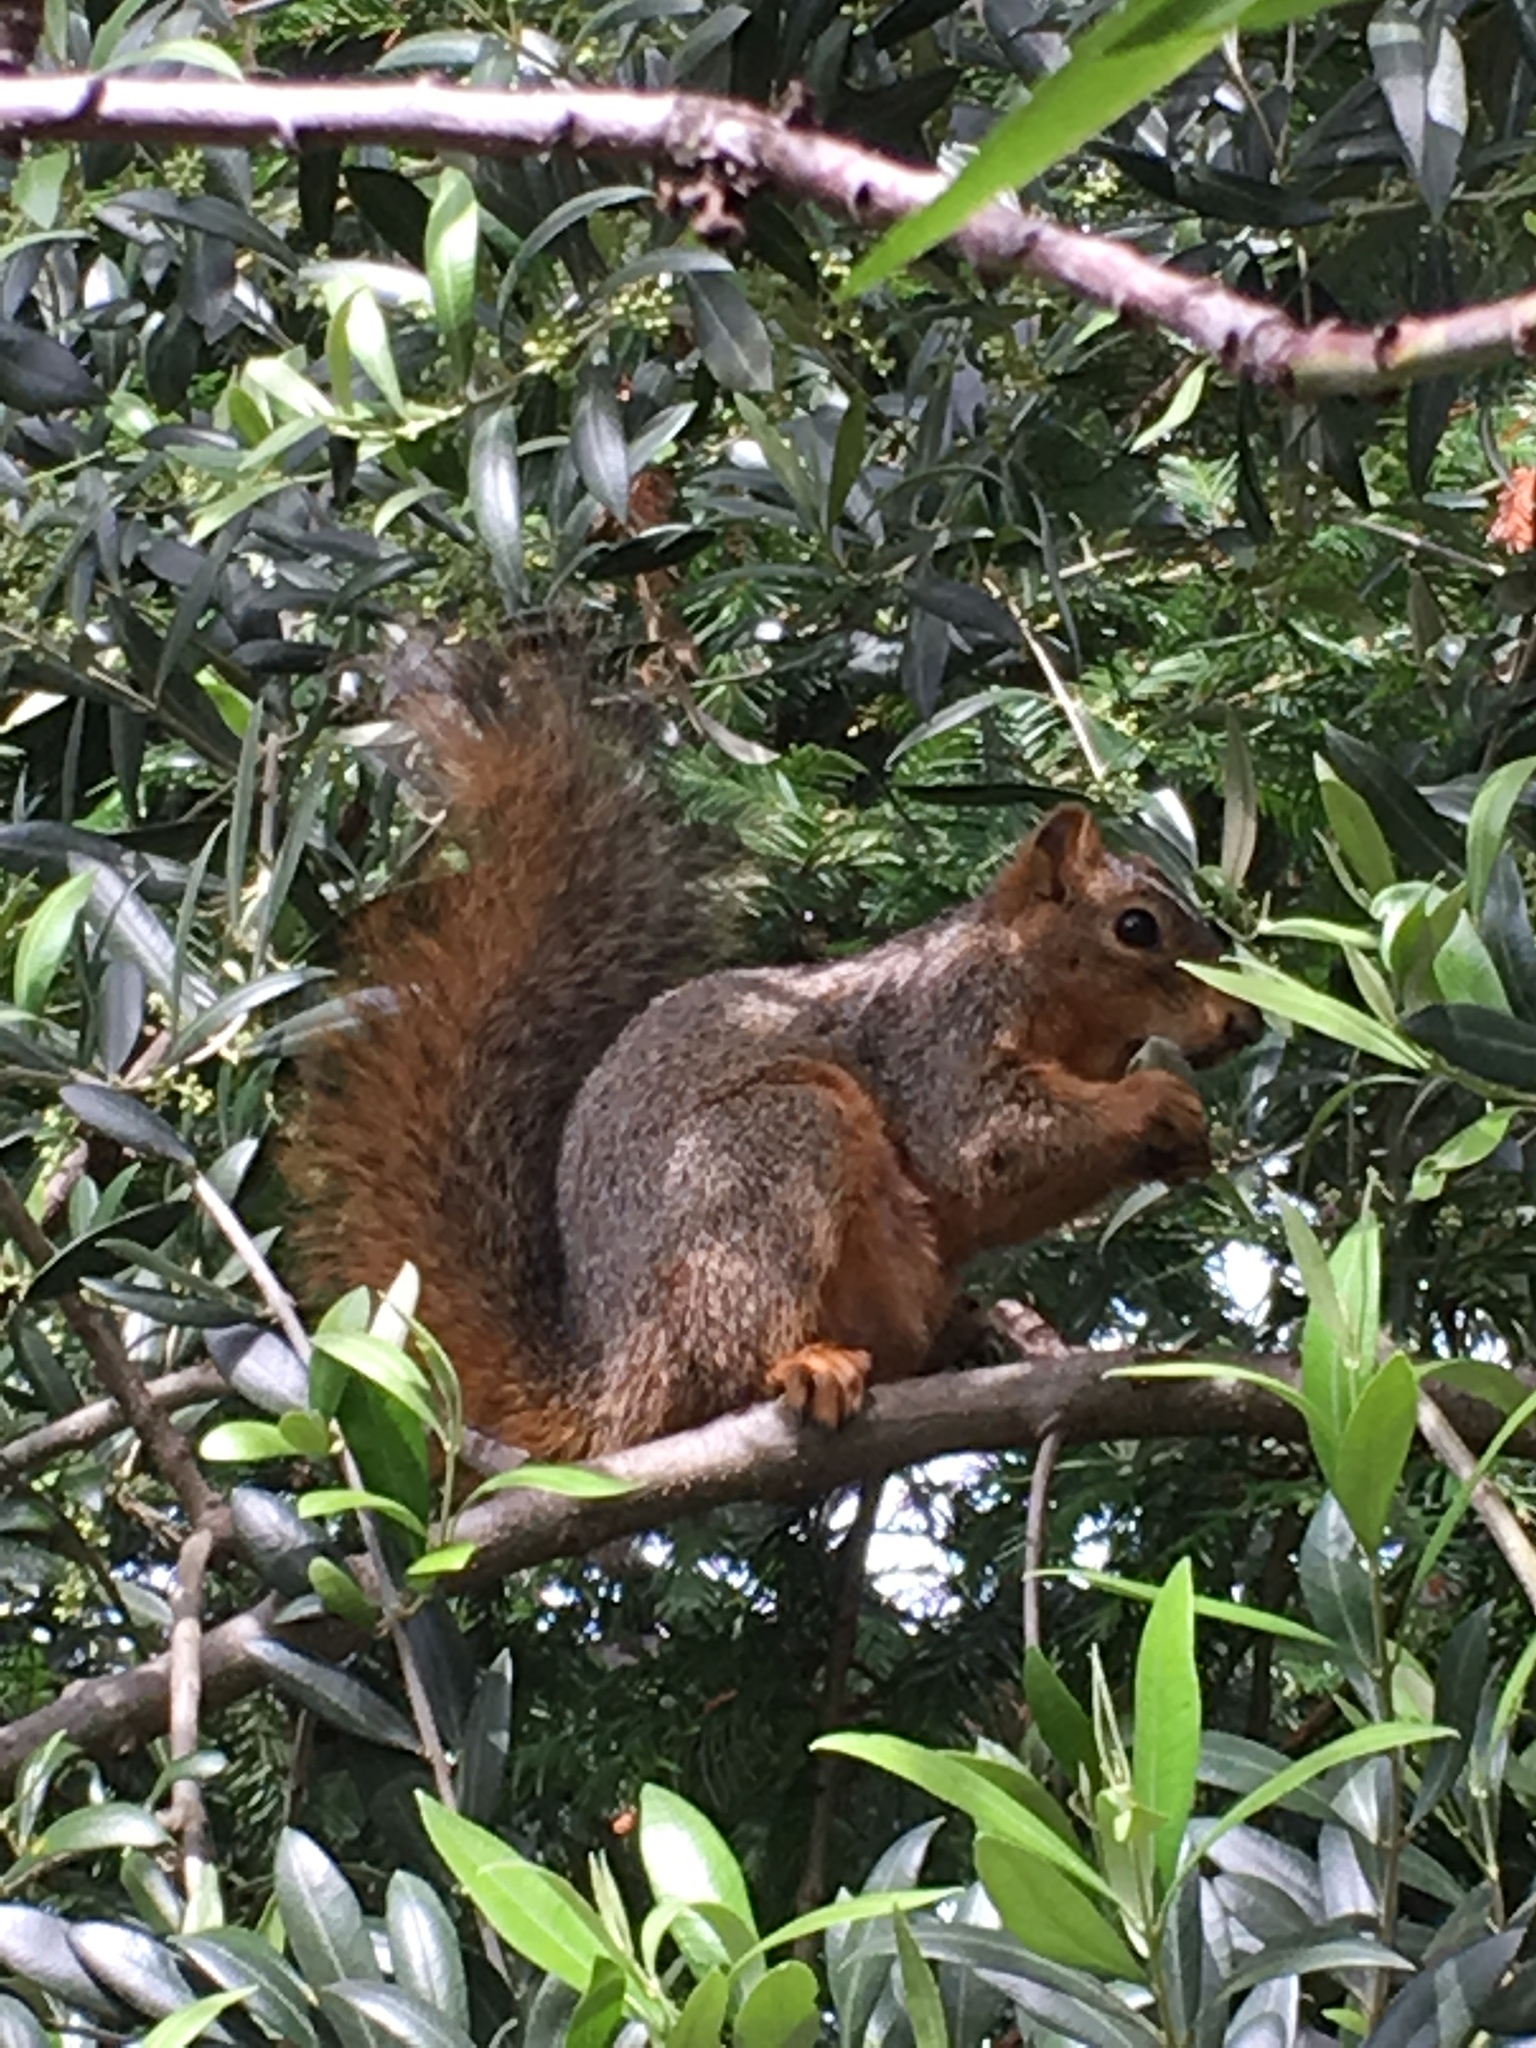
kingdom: Animalia
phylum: Chordata
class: Mammalia
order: Rodentia
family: Sciuridae
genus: Sciurus
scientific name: Sciurus niger
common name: Fox squirrel
